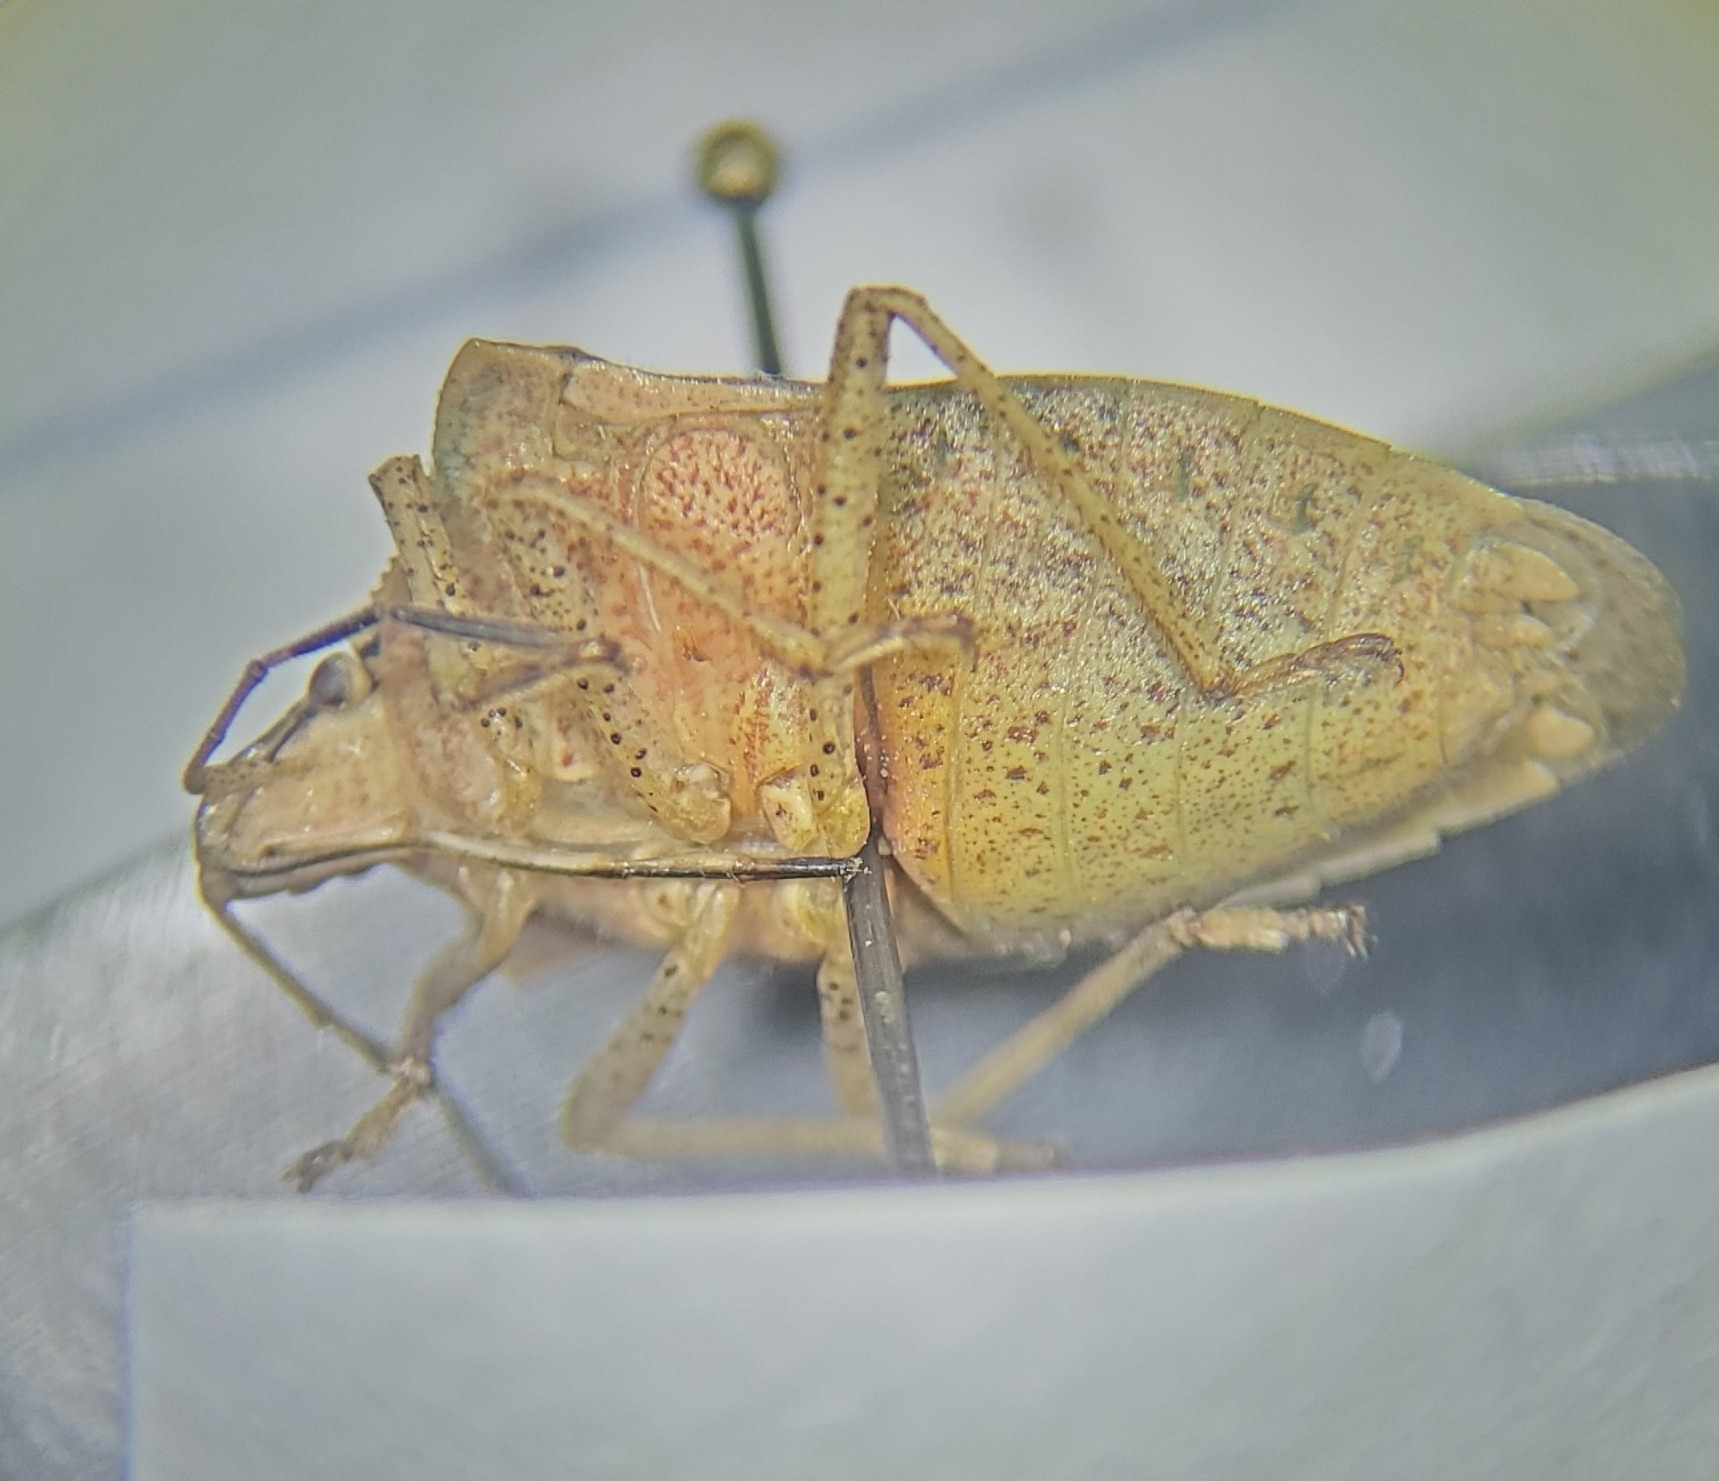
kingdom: Animalia
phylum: Arthropoda
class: Insecta
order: Hemiptera
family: Pentatomidae
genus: Euschistus
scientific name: Euschistus variolarius
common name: Onespotted stink bug
